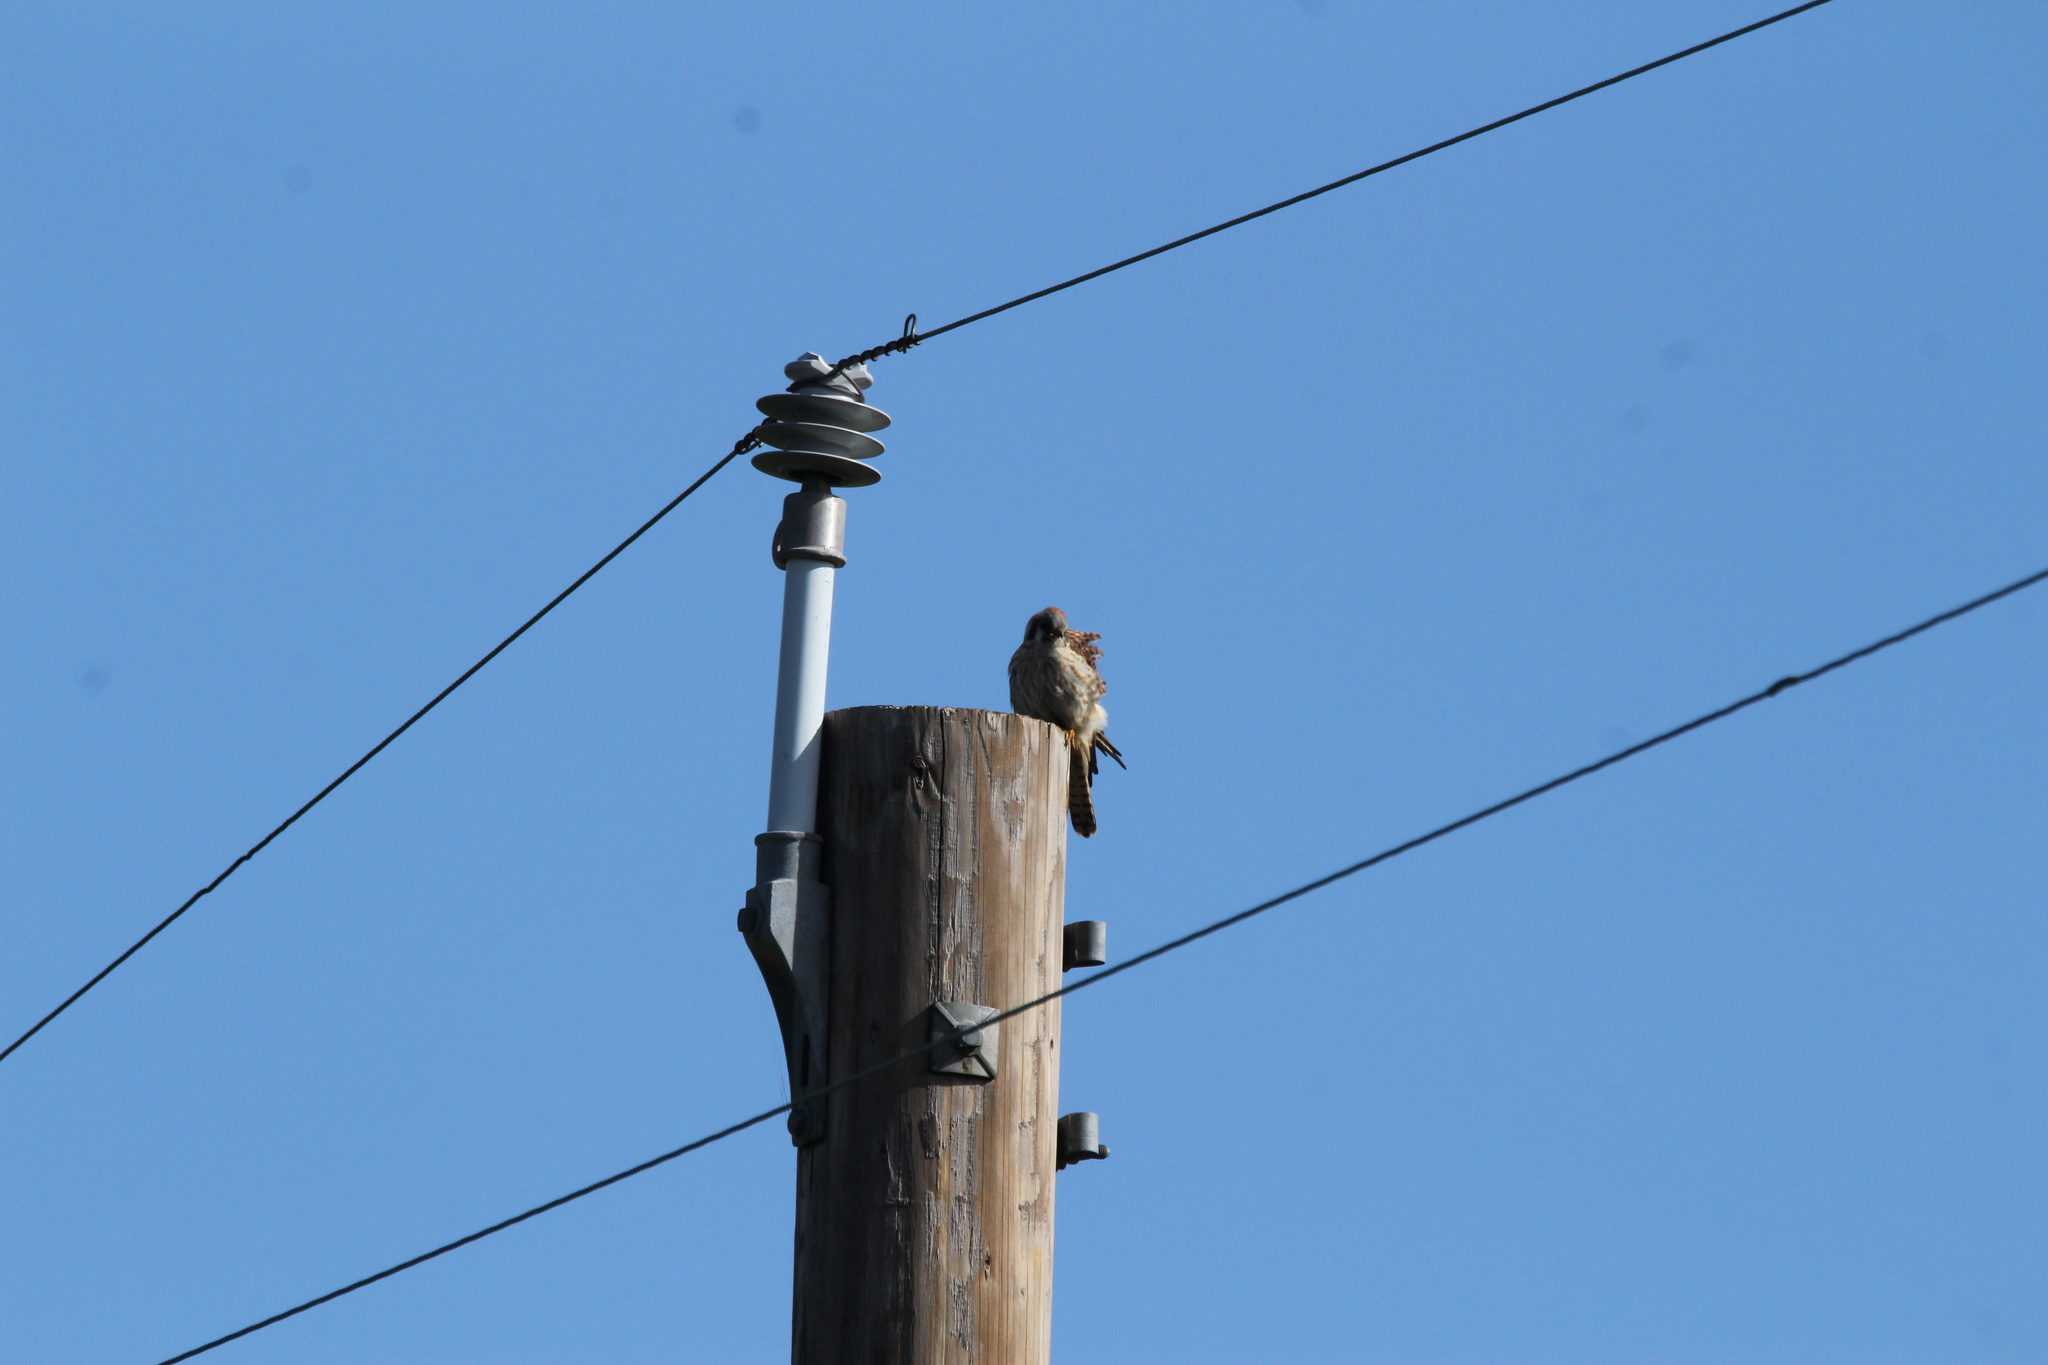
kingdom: Animalia
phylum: Chordata
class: Aves
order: Falconiformes
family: Falconidae
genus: Falco
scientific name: Falco sparverius
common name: American kestrel
